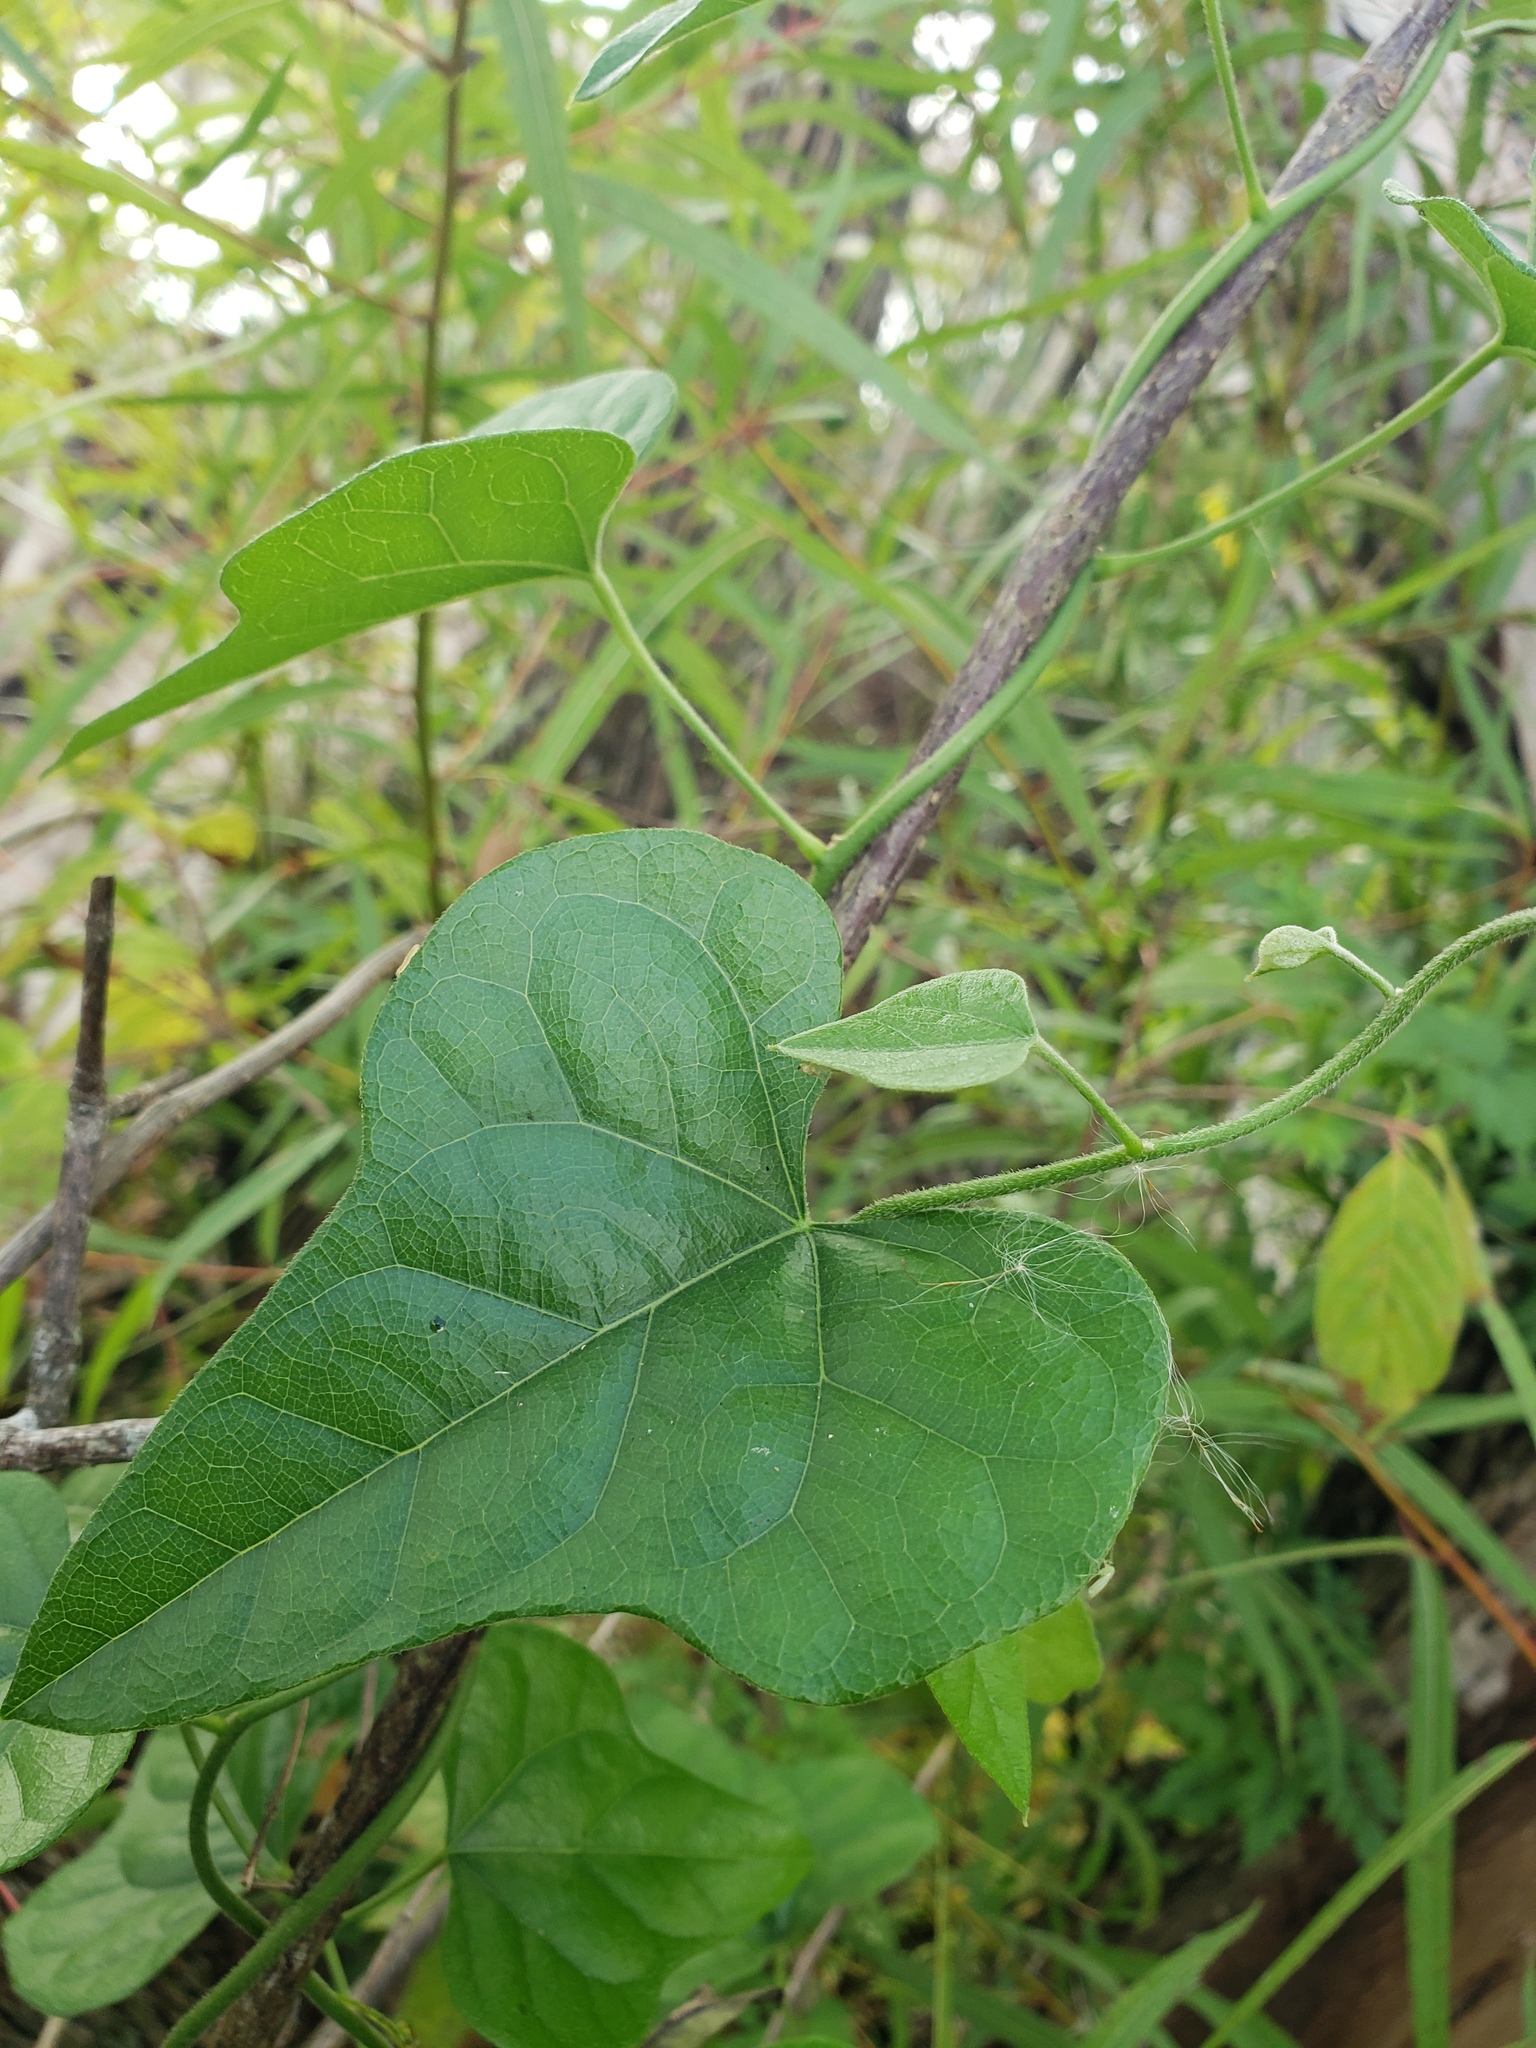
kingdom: Plantae
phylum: Tracheophyta
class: Magnoliopsida
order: Ranunculales
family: Menispermaceae
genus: Cocculus
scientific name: Cocculus carolinus
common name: Carolina moonseed
